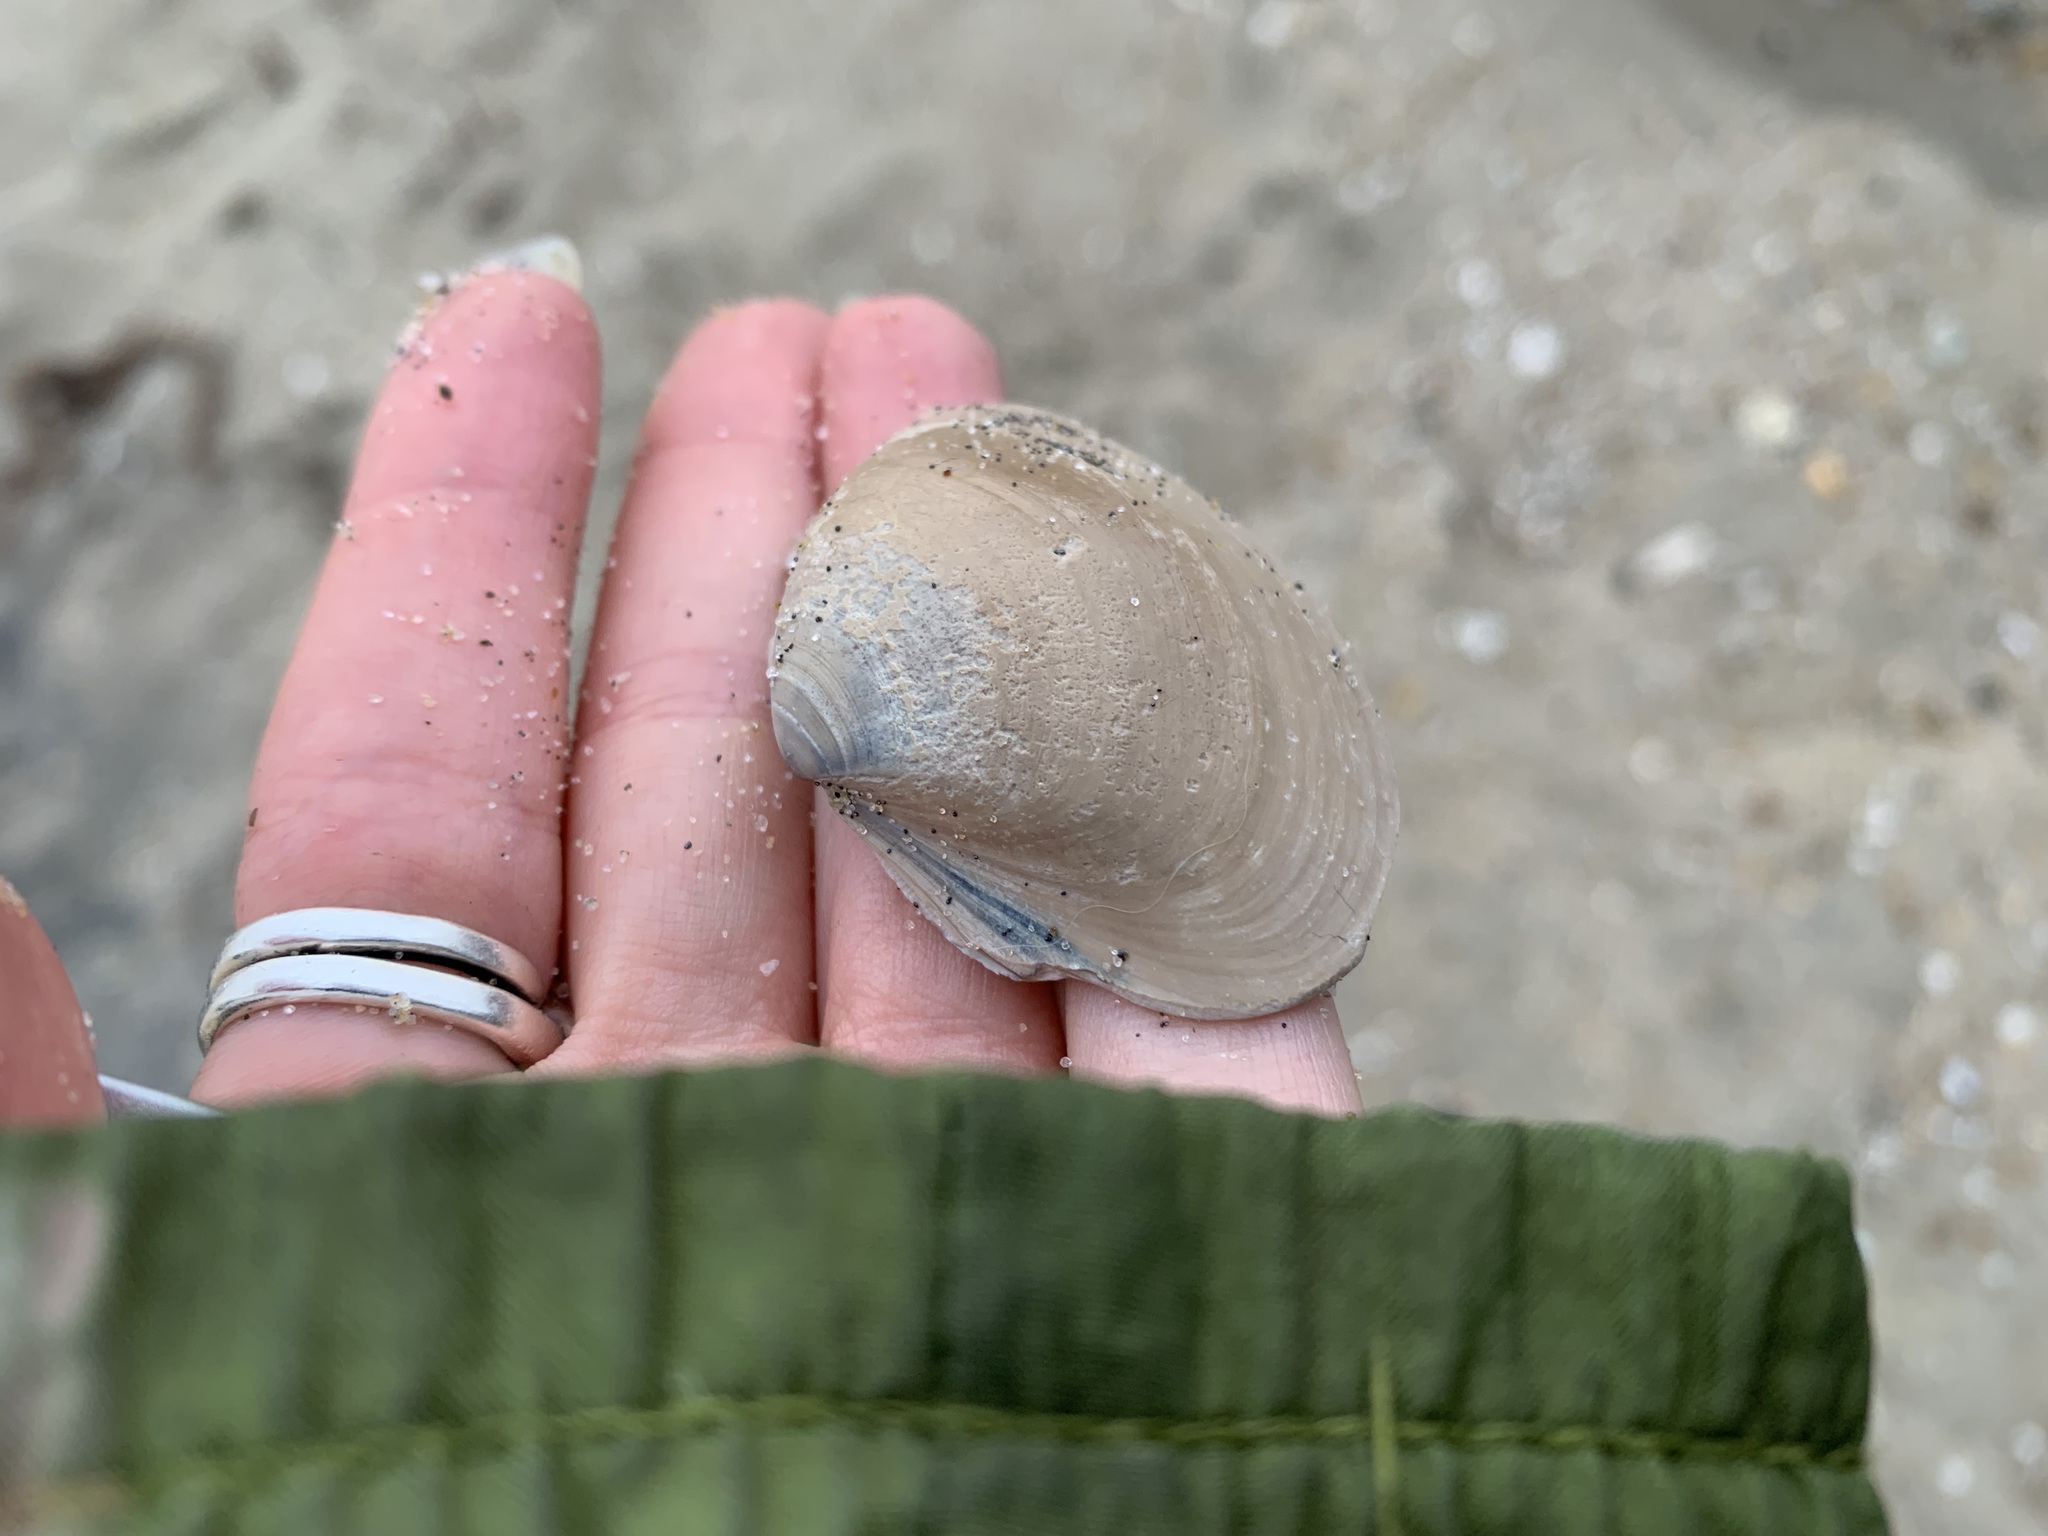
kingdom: Animalia
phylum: Mollusca
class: Bivalvia
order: Venerida
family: Mactridae
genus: Spisula
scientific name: Spisula solidissima
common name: Atlantic surf clam
